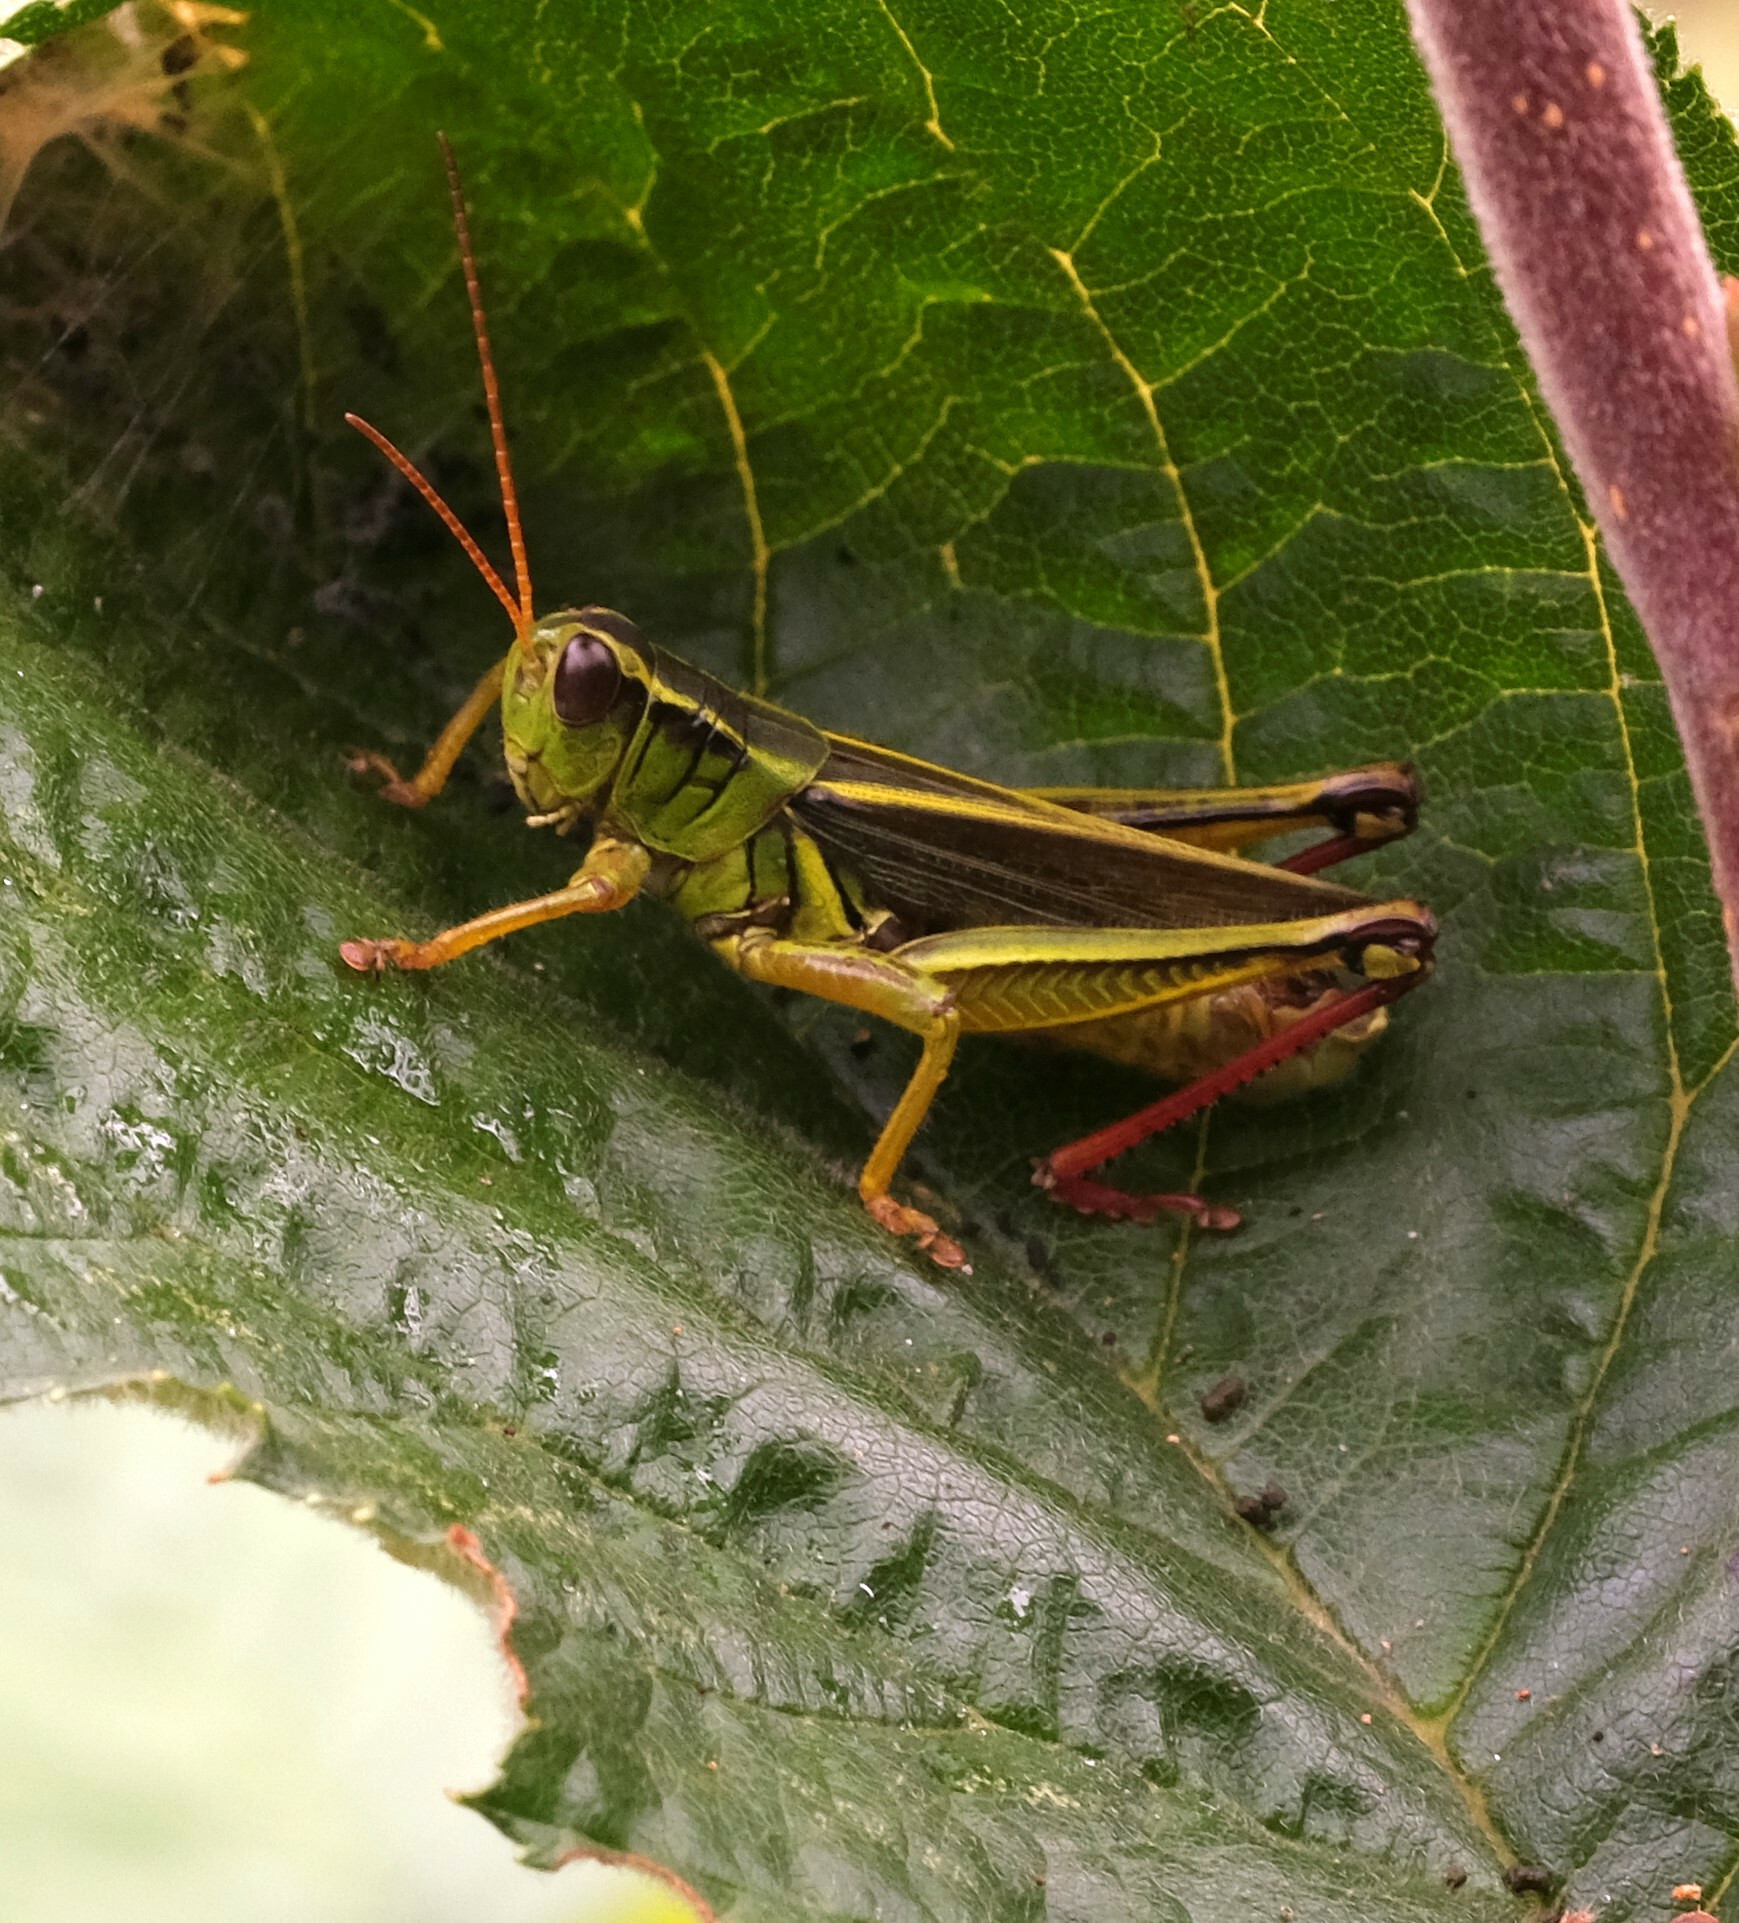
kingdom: Animalia
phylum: Arthropoda
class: Insecta
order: Orthoptera
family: Acrididae
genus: Melanoplus
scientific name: Melanoplus bivittatus
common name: Two-striped grasshopper
